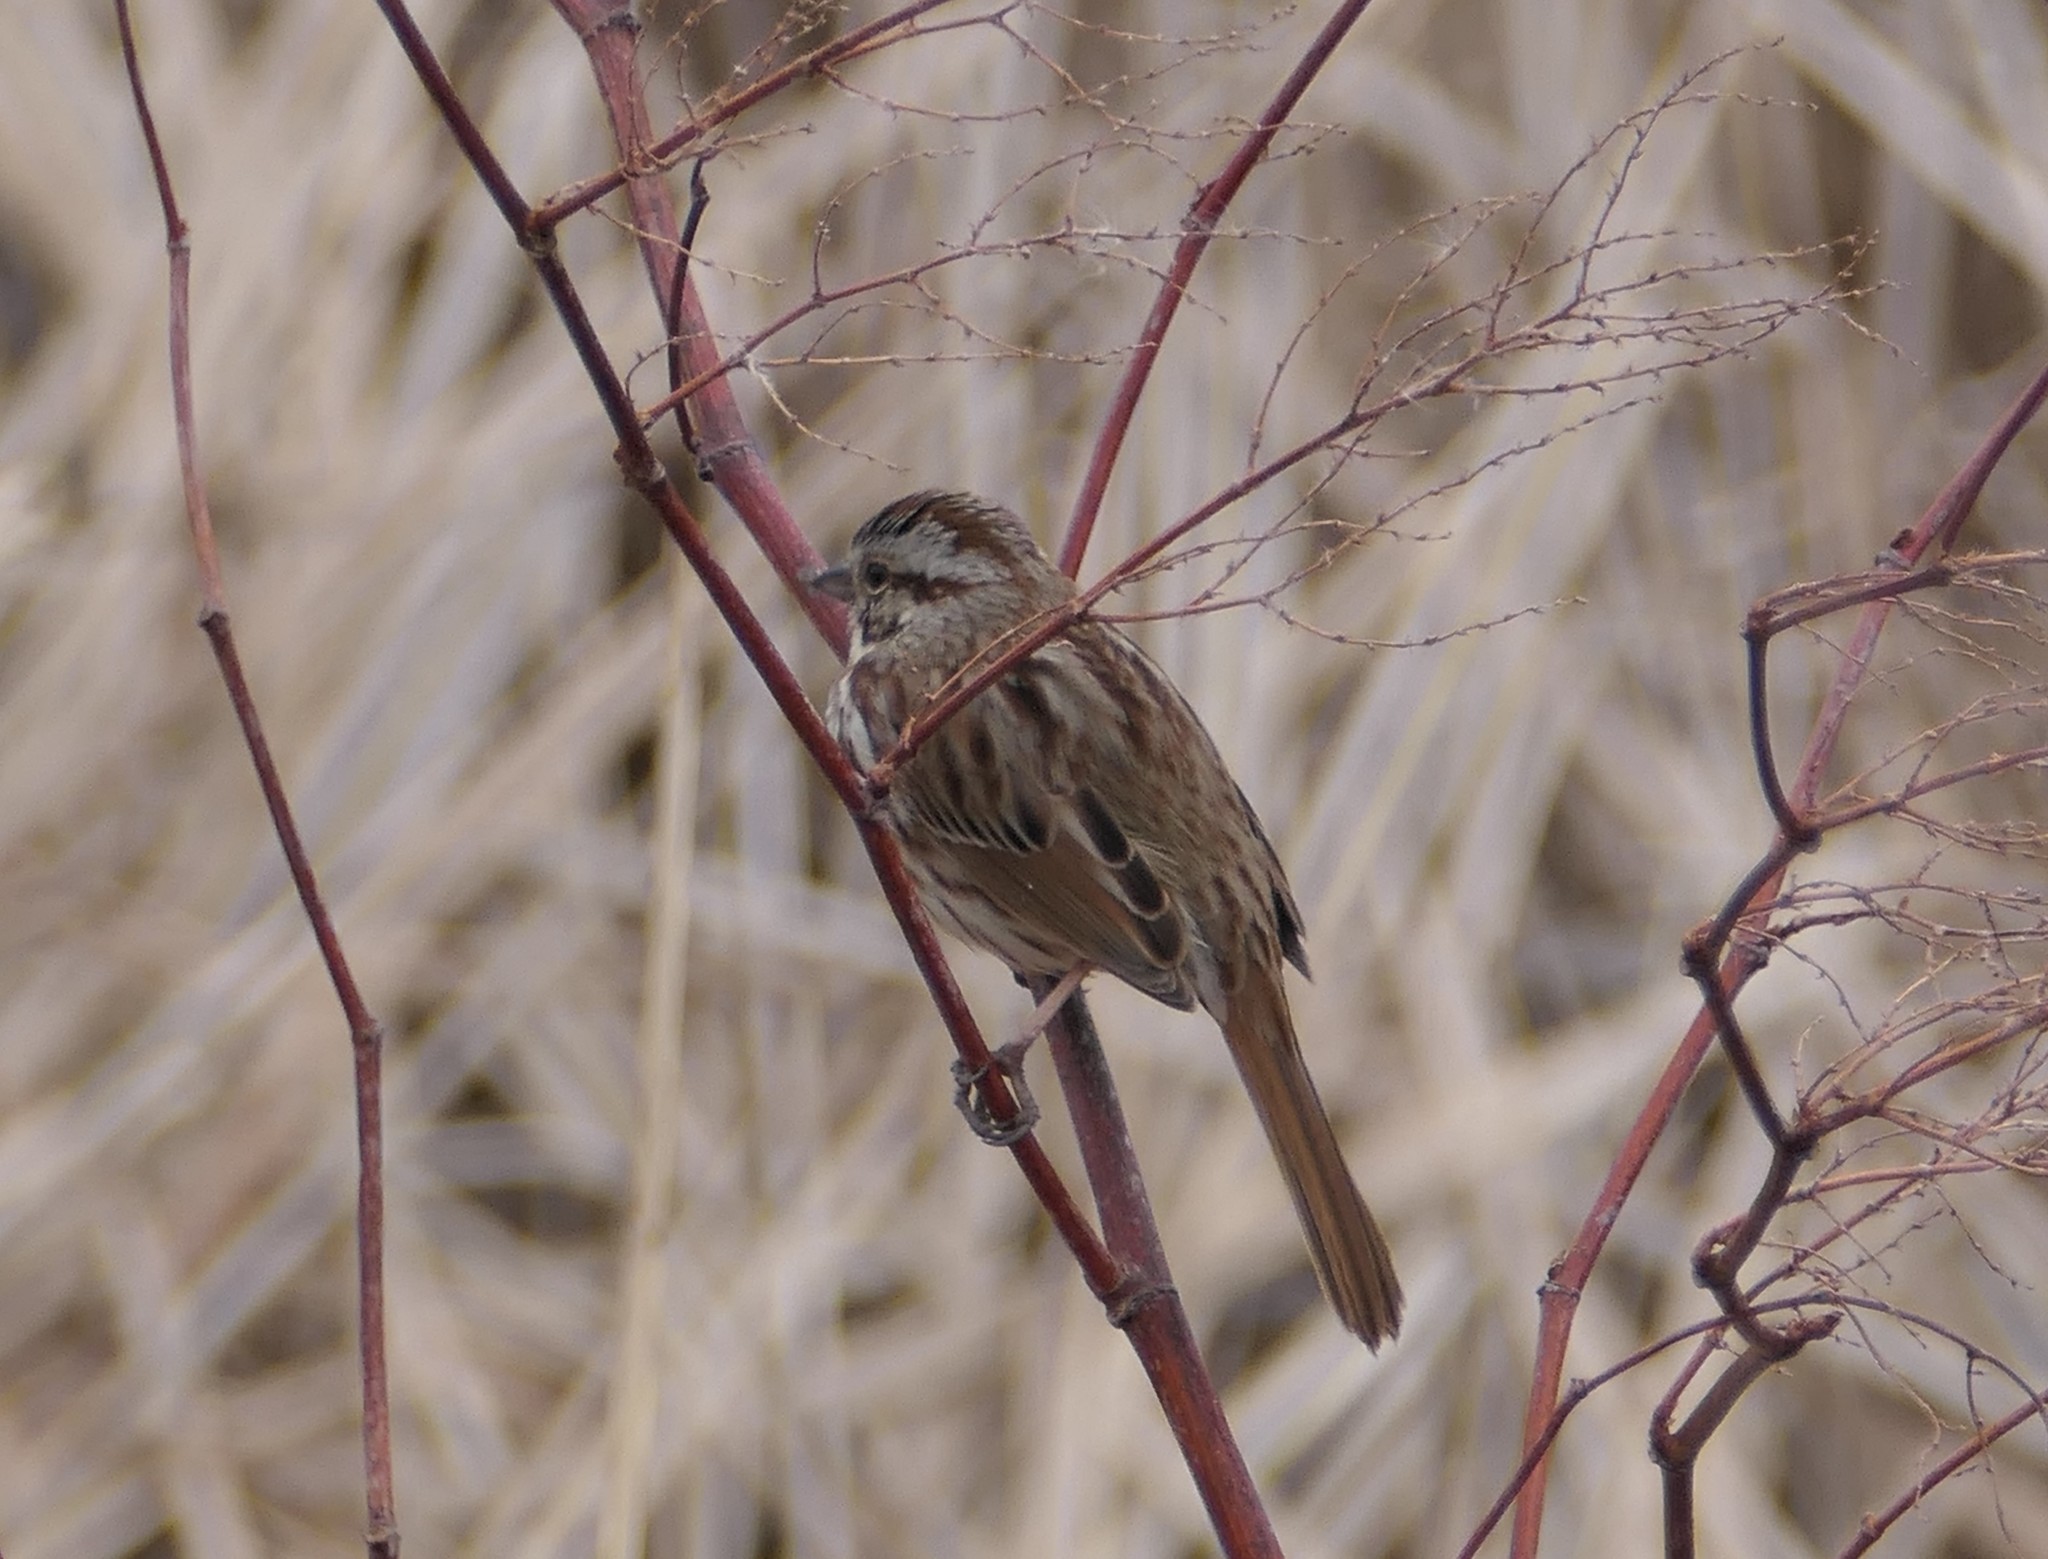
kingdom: Animalia
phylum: Chordata
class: Aves
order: Passeriformes
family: Passerellidae
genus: Melospiza
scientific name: Melospiza melodia
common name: Song sparrow
